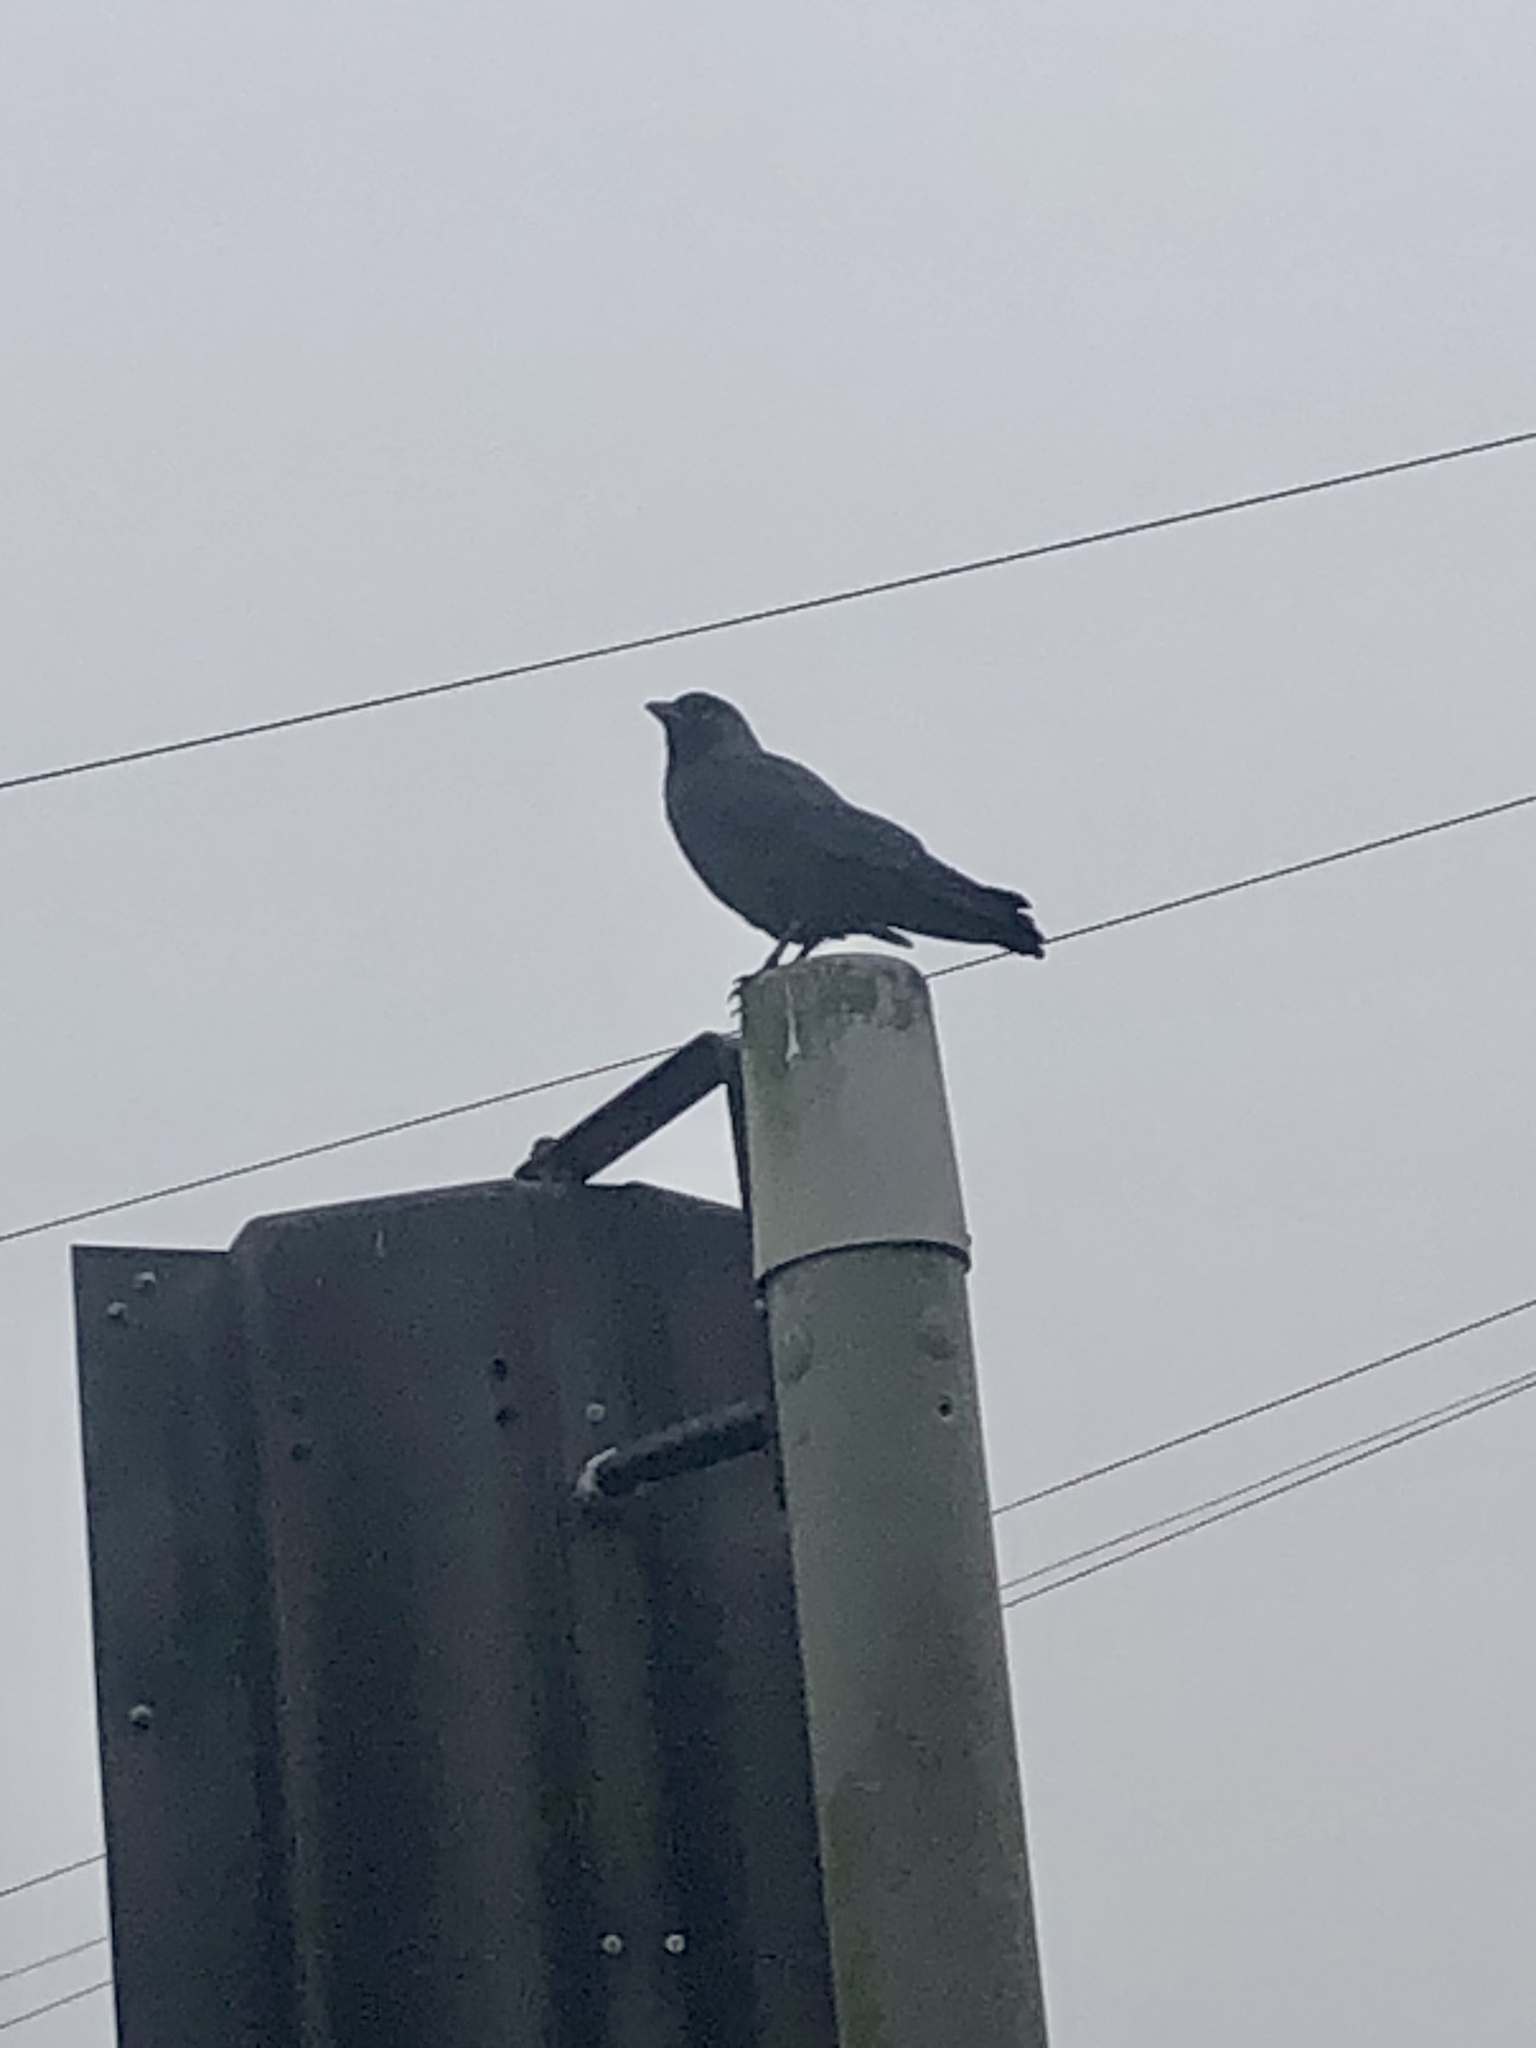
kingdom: Animalia
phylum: Chordata
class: Aves
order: Passeriformes
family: Corvidae
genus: Coloeus
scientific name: Coloeus monedula
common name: Western jackdaw
